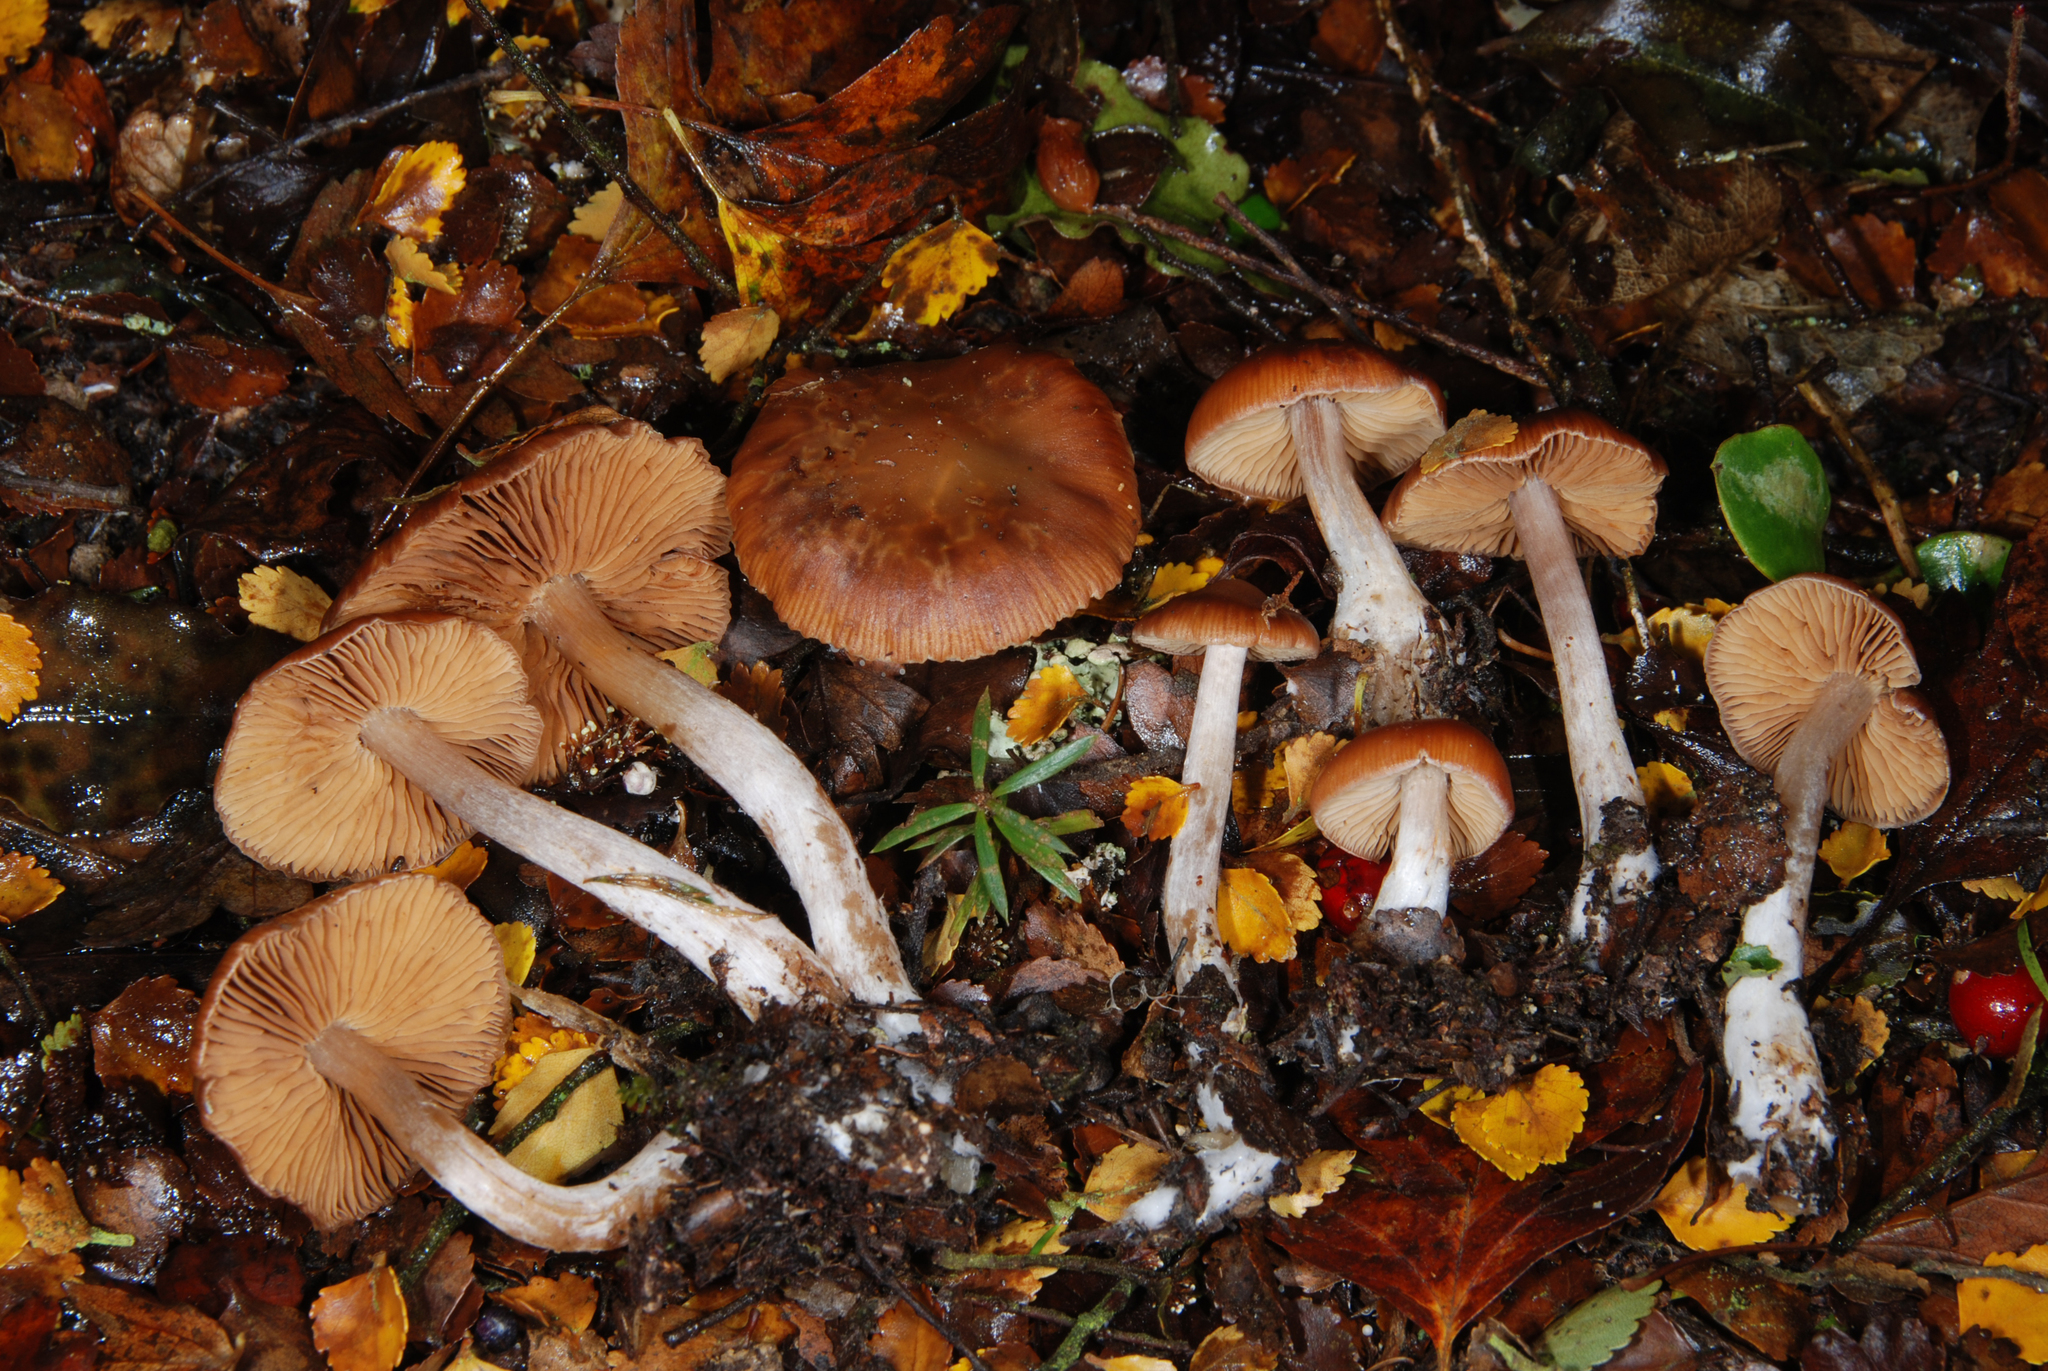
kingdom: Fungi
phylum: Basidiomycota
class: Agaricomycetes
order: Agaricales
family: Cortinariaceae
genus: Hygronarius
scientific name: Hygronarius viscincisus
